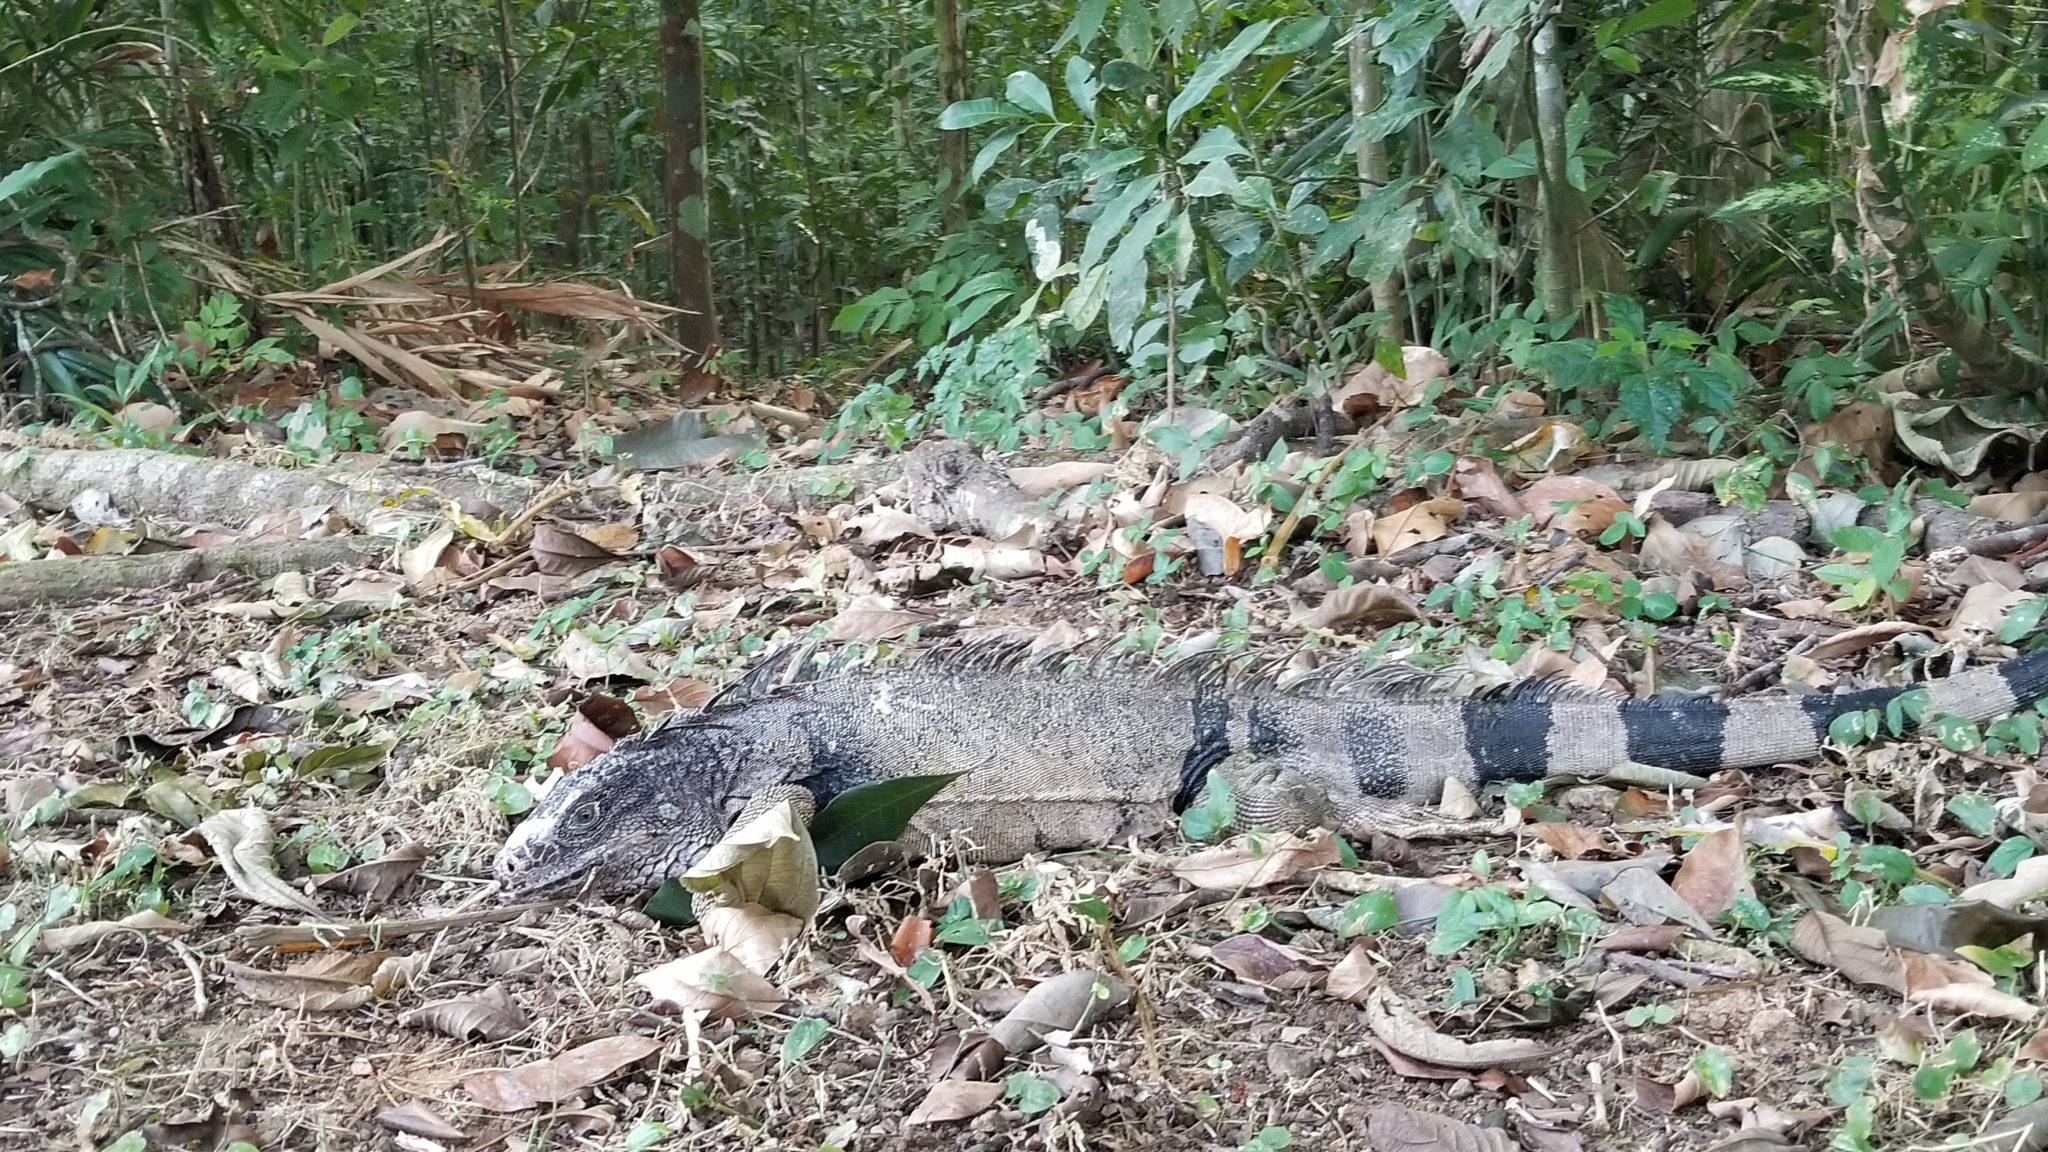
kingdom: Animalia
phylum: Chordata
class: Squamata
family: Iguanidae
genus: Iguana
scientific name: Iguana iguana
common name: Green iguana
